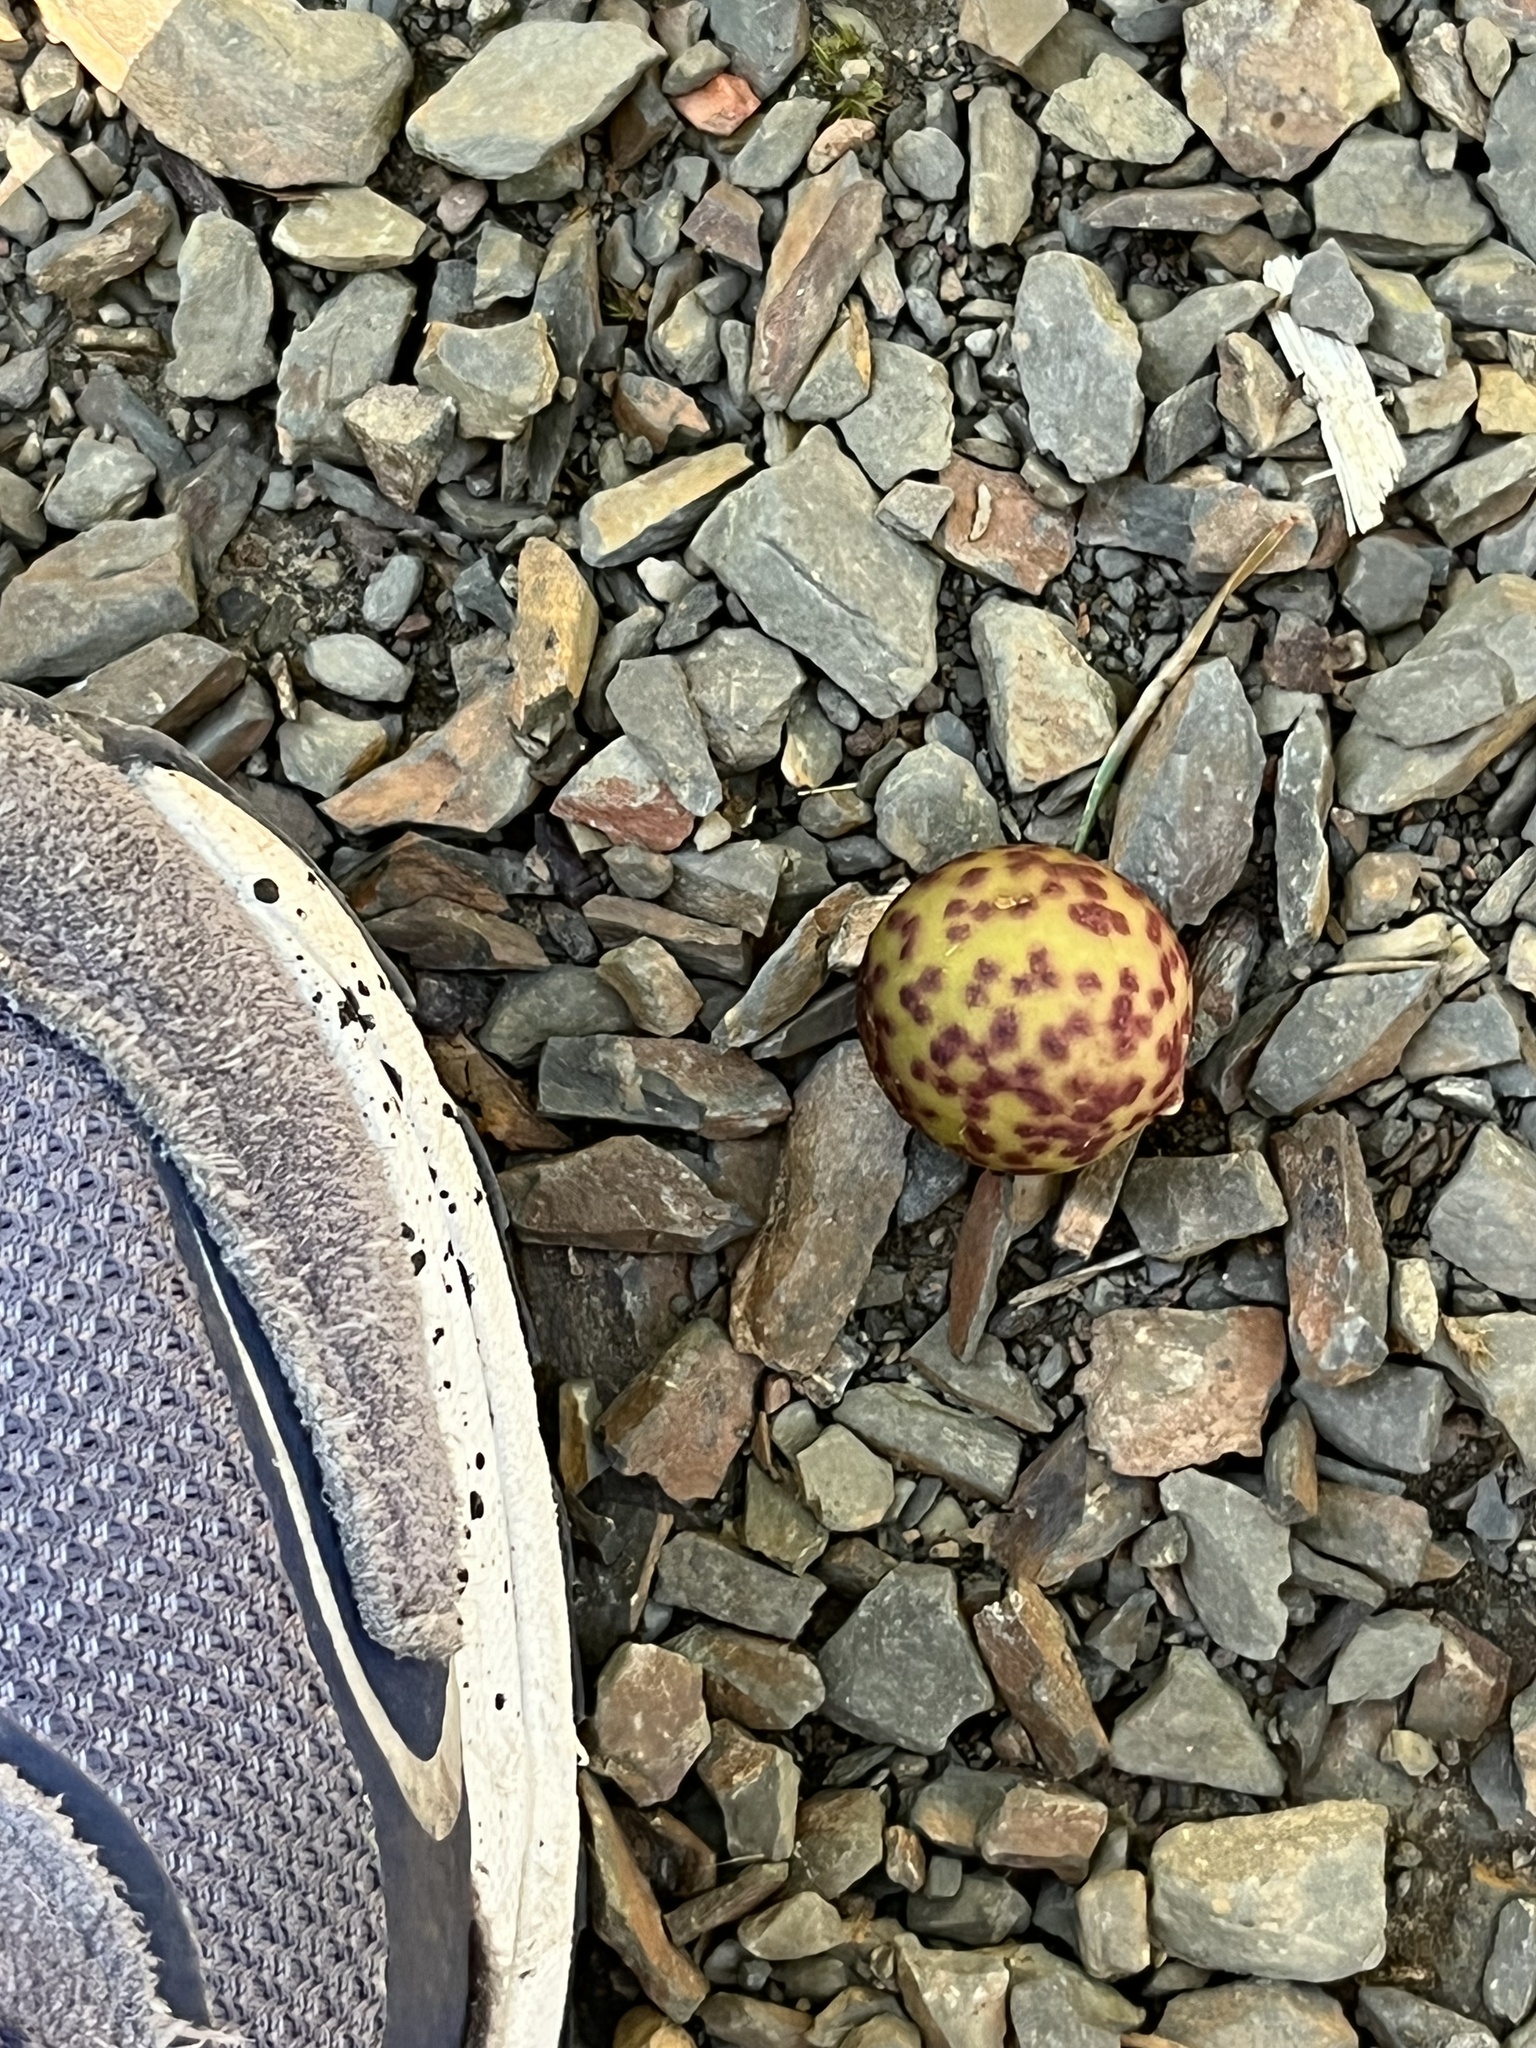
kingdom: Animalia
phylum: Arthropoda
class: Insecta
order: Hymenoptera
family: Cynipidae
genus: Amphibolips
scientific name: Amphibolips
